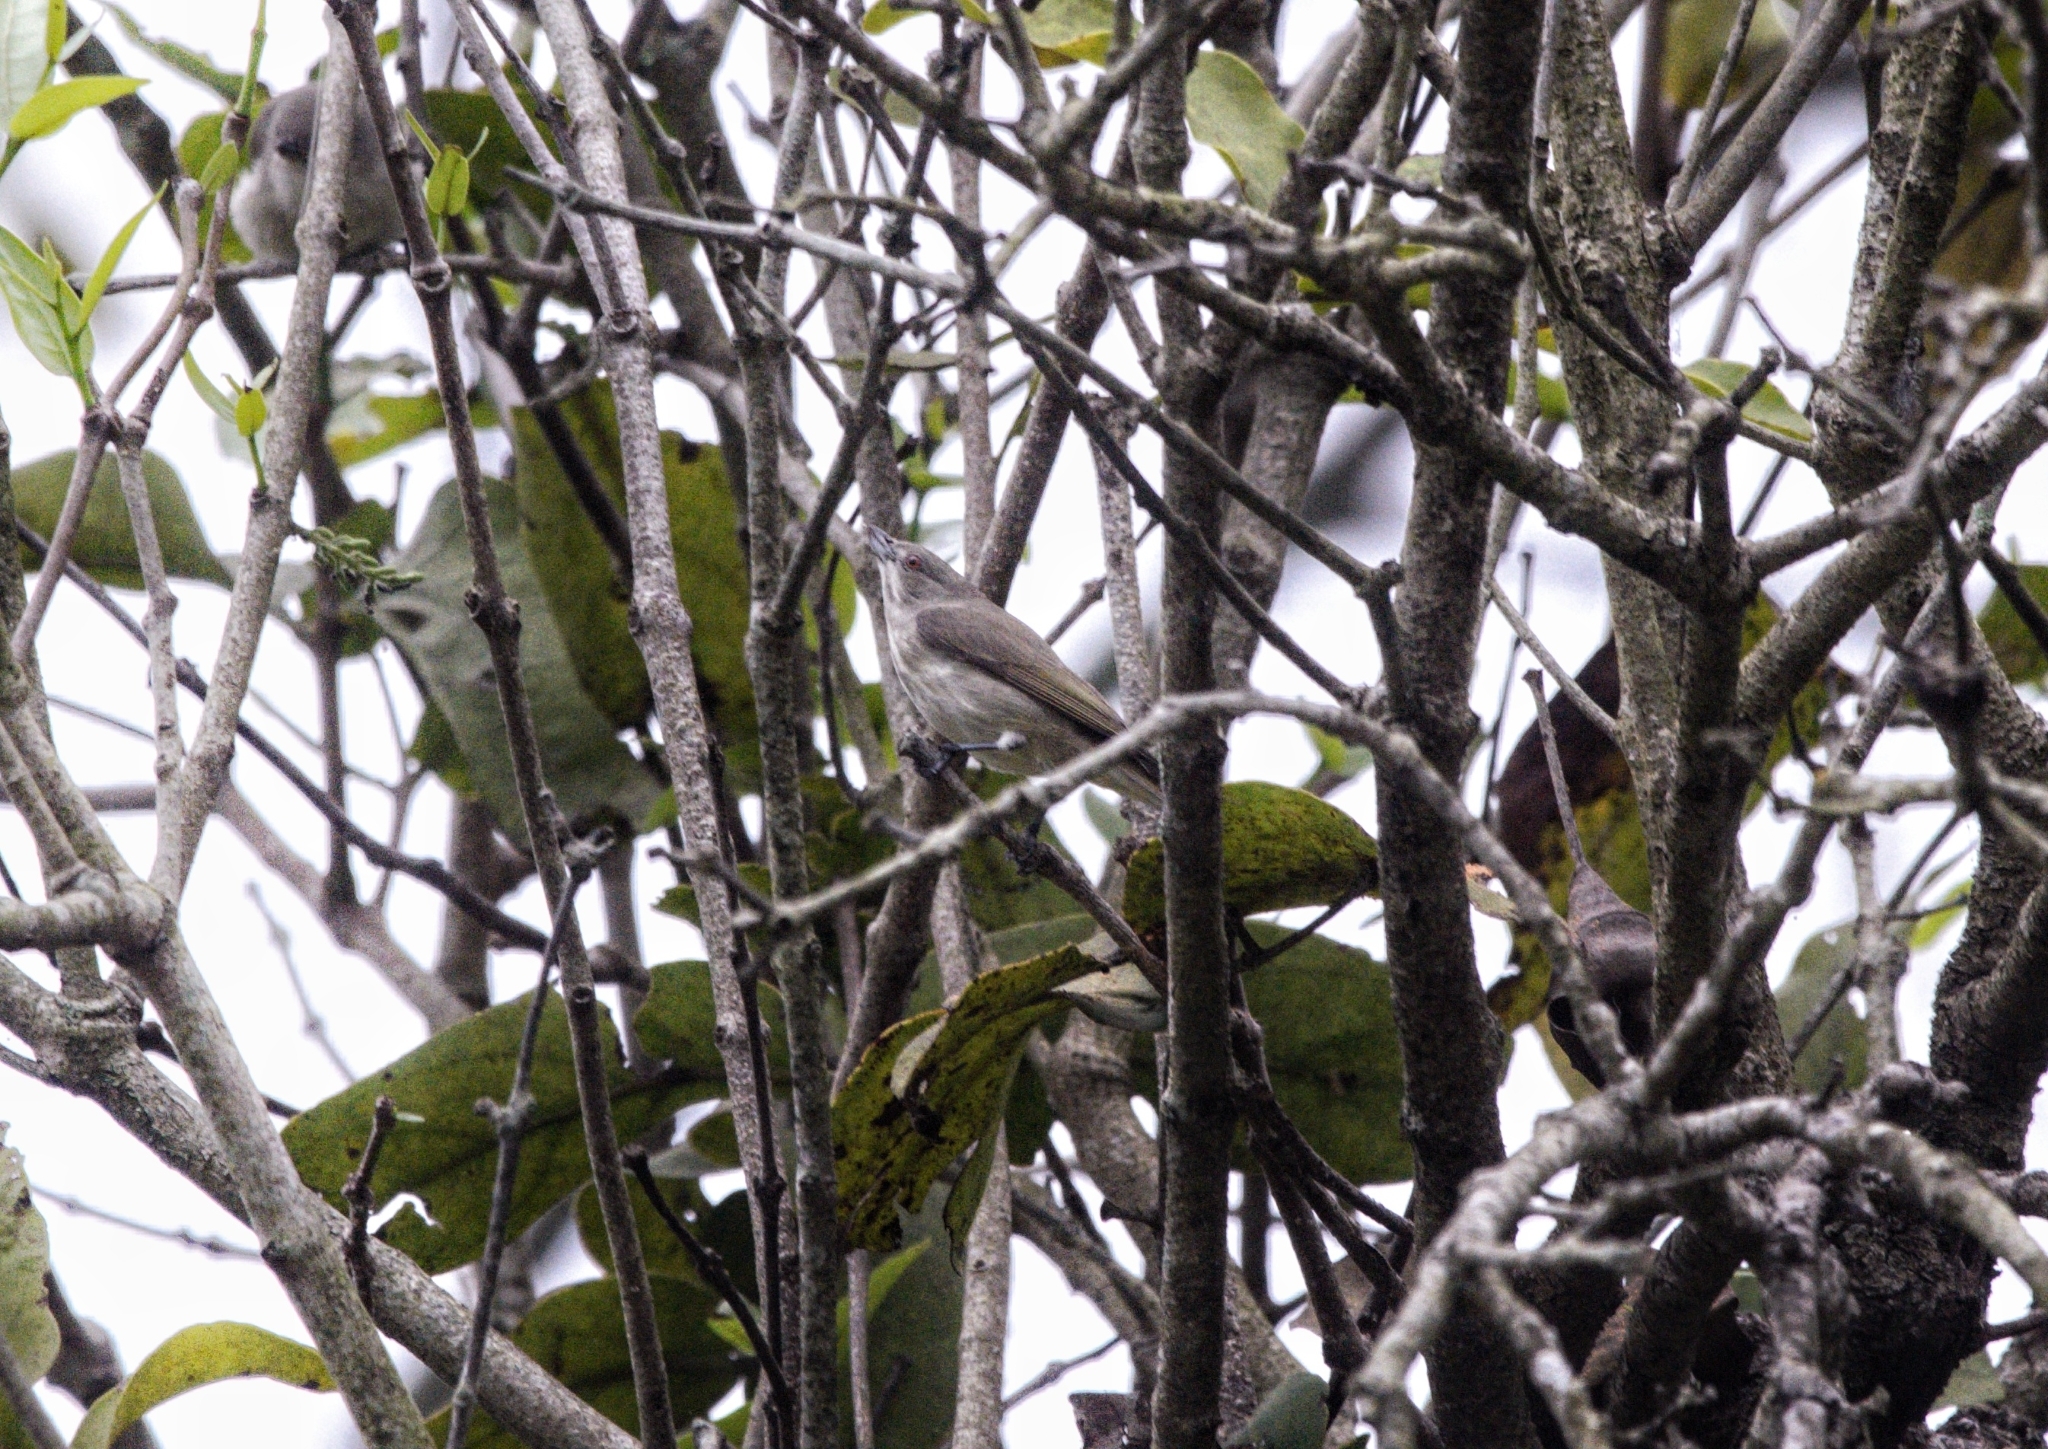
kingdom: Animalia
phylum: Chordata
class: Aves
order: Passeriformes
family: Dicaeidae
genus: Dicaeum
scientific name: Dicaeum agile
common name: Thick-billed flowerpecker
